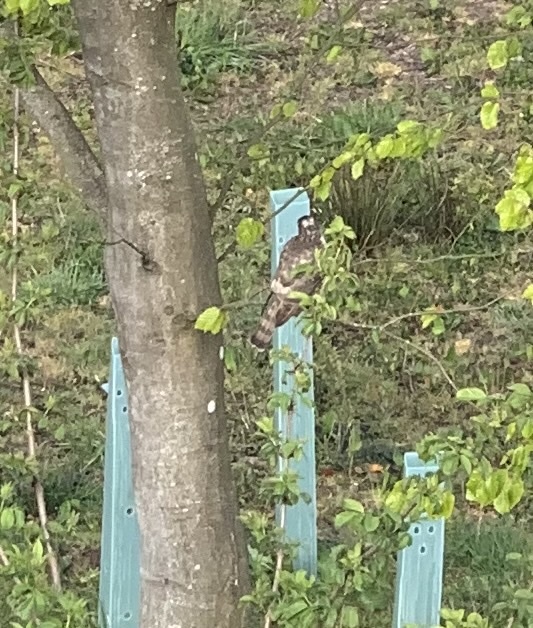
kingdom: Animalia
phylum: Chordata
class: Aves
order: Accipitriformes
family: Accipitridae
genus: Accipiter
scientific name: Accipiter nisus
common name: Eurasian sparrowhawk
